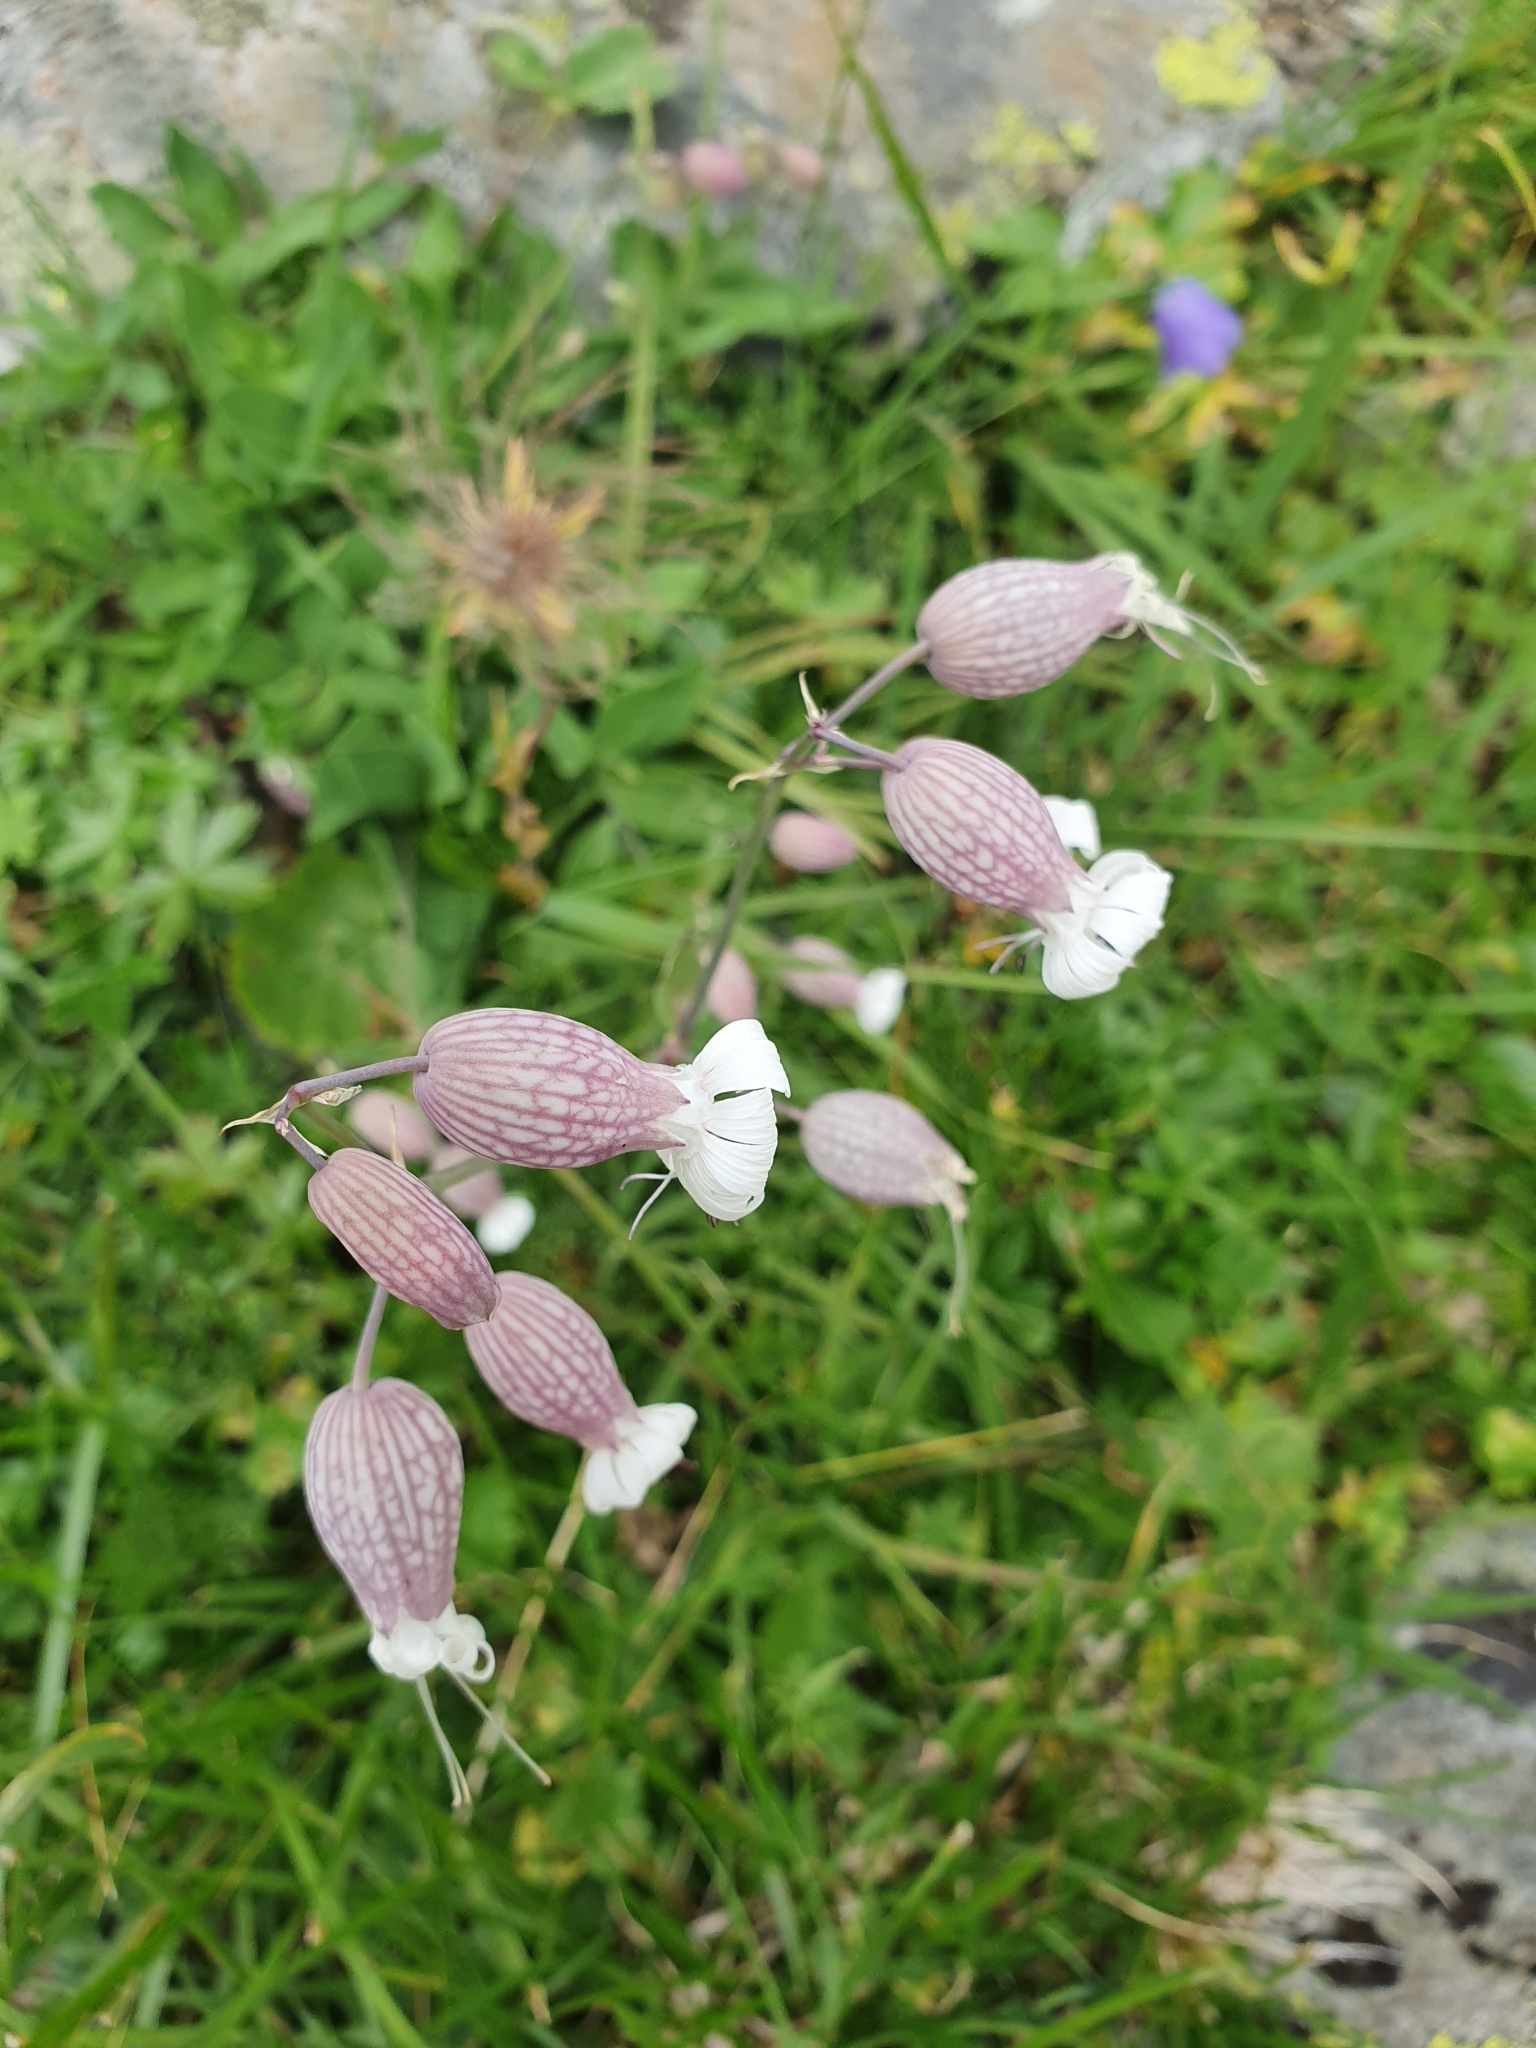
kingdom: Plantae
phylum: Tracheophyta
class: Magnoliopsida
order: Caryophyllales
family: Caryophyllaceae
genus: Silene
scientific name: Silene vulgaris
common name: Bladder campion
